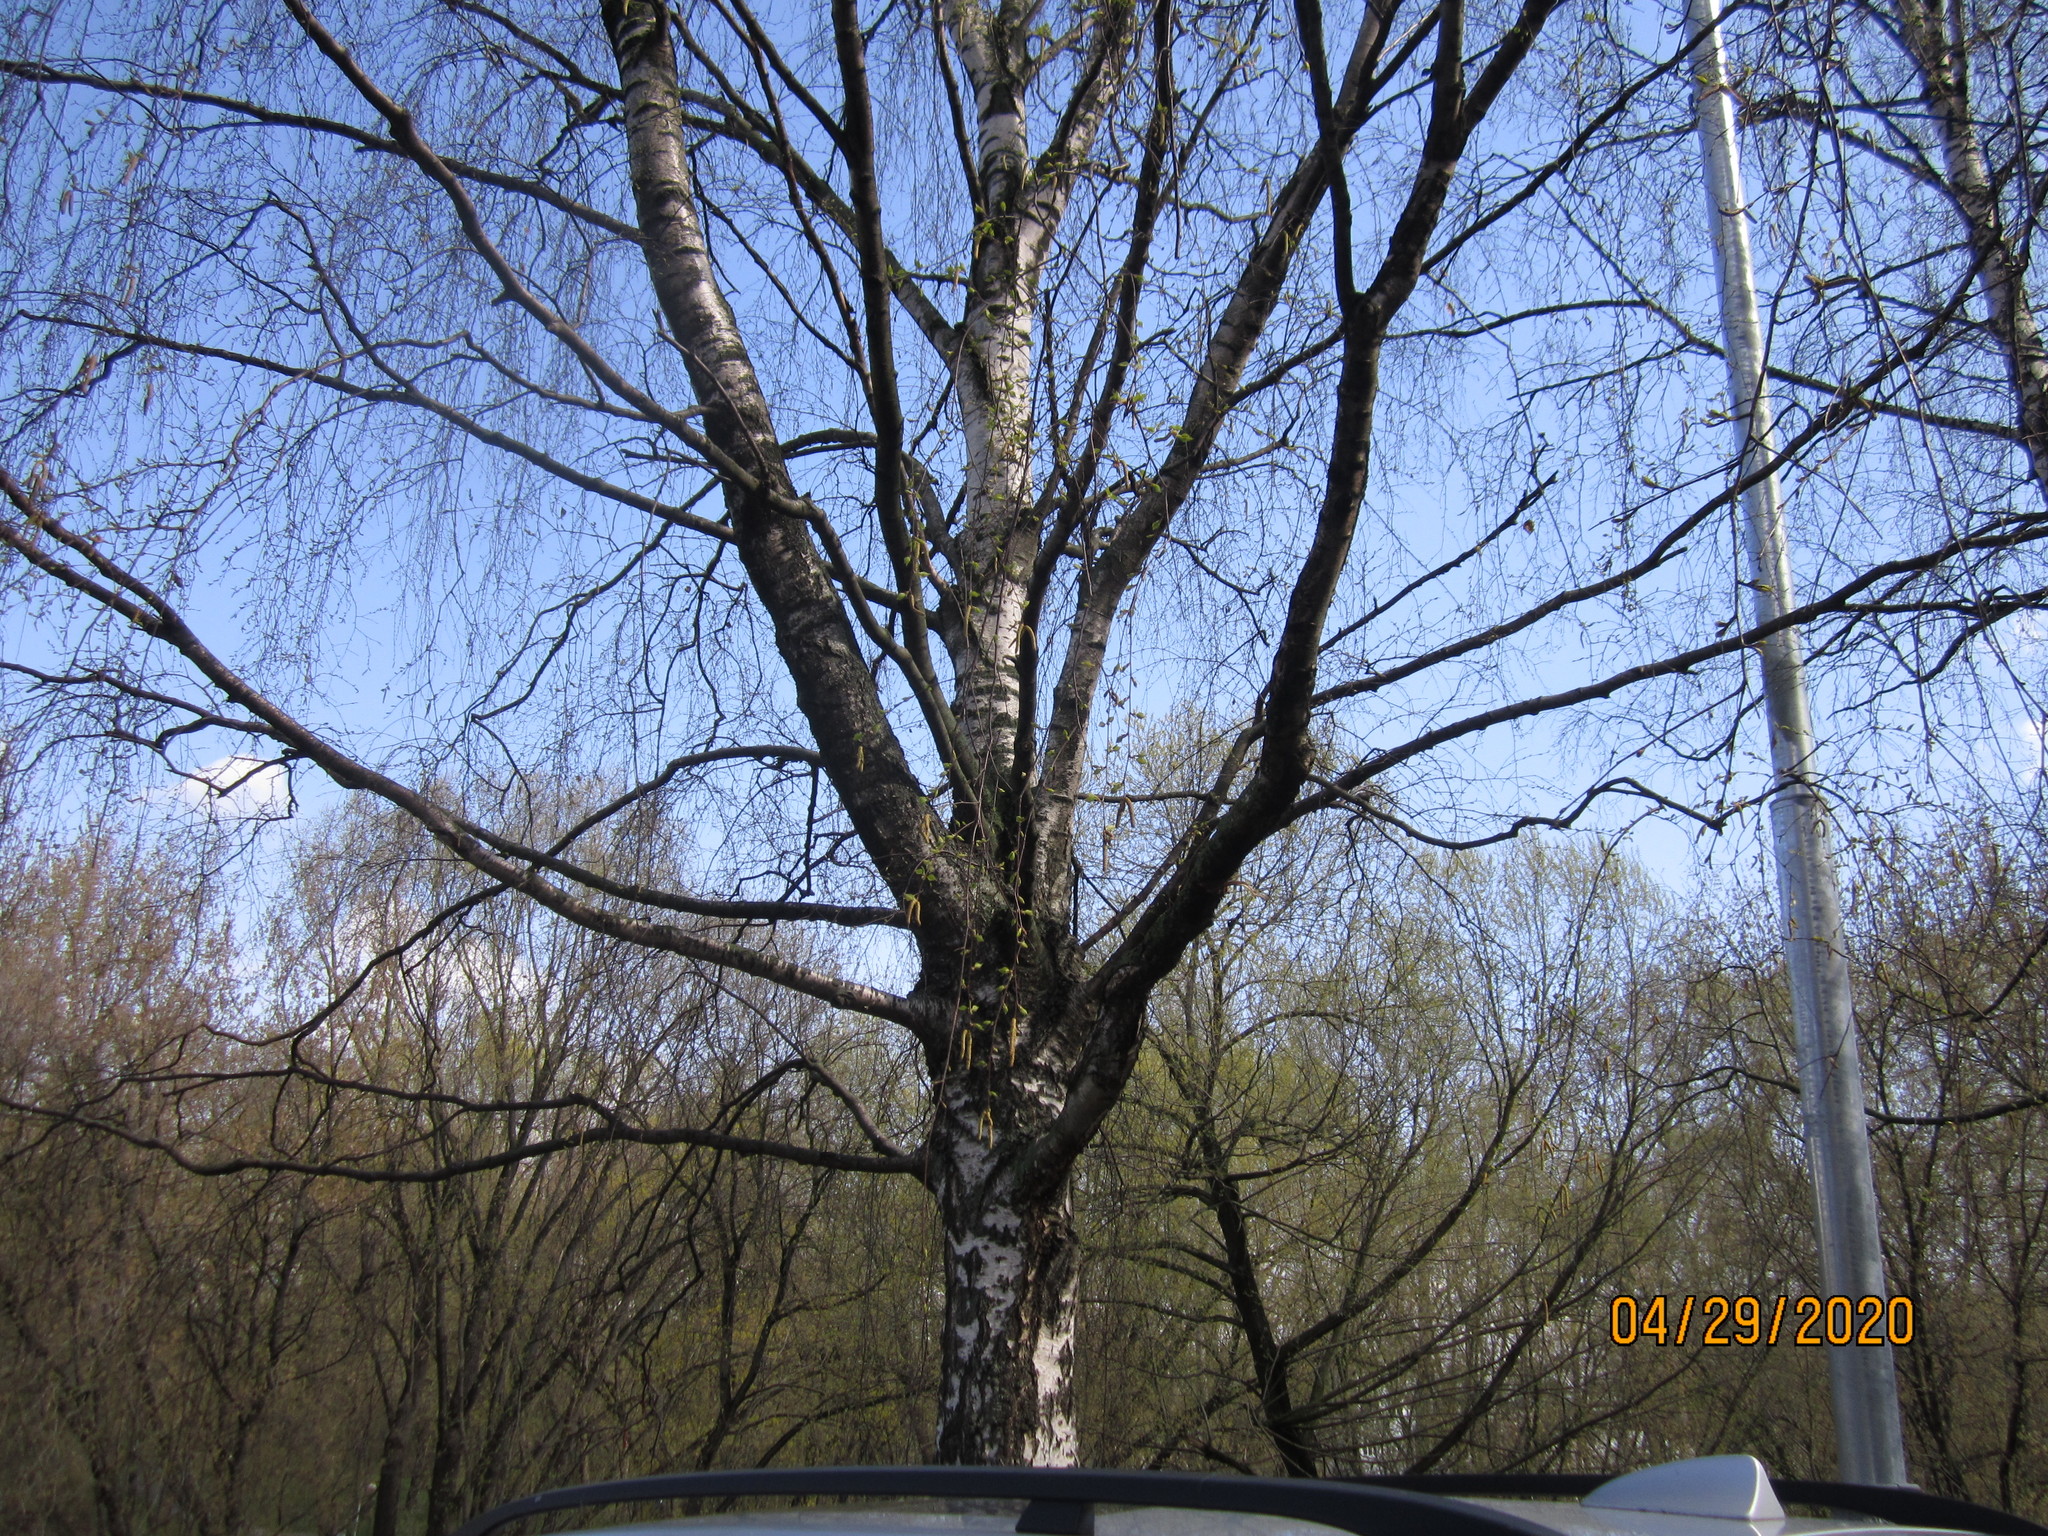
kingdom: Plantae
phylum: Tracheophyta
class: Magnoliopsida
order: Fagales
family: Betulaceae
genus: Betula
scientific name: Betula pendula
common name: Silver birch
